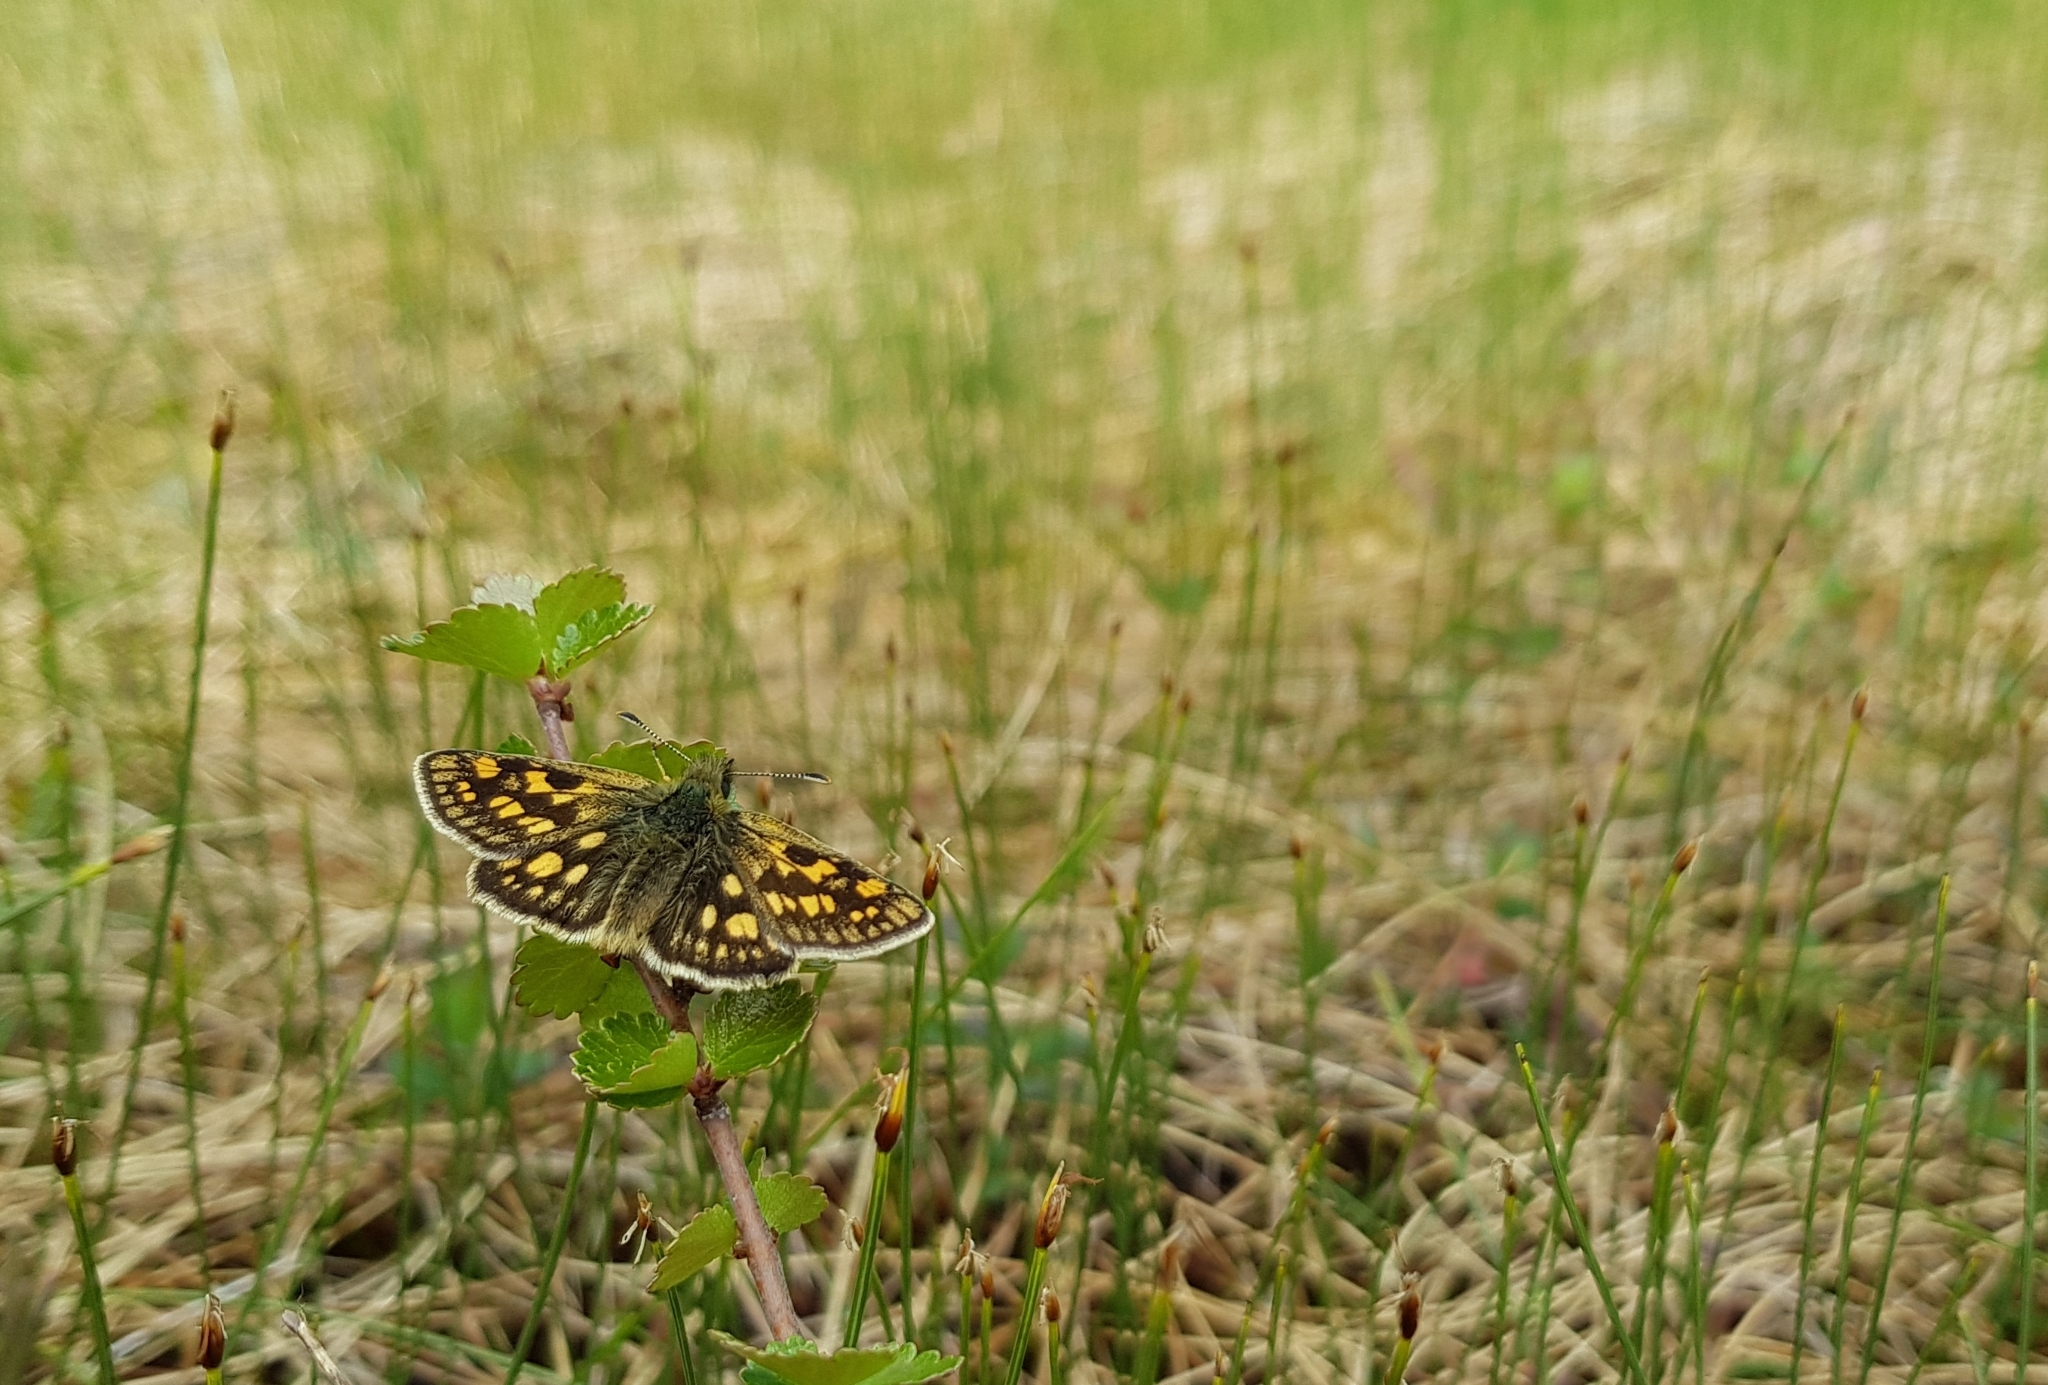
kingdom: Animalia
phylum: Arthropoda
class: Insecta
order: Lepidoptera
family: Hesperiidae
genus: Carterocephalus
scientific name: Carterocephalus palaemon
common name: Chequered skipper
